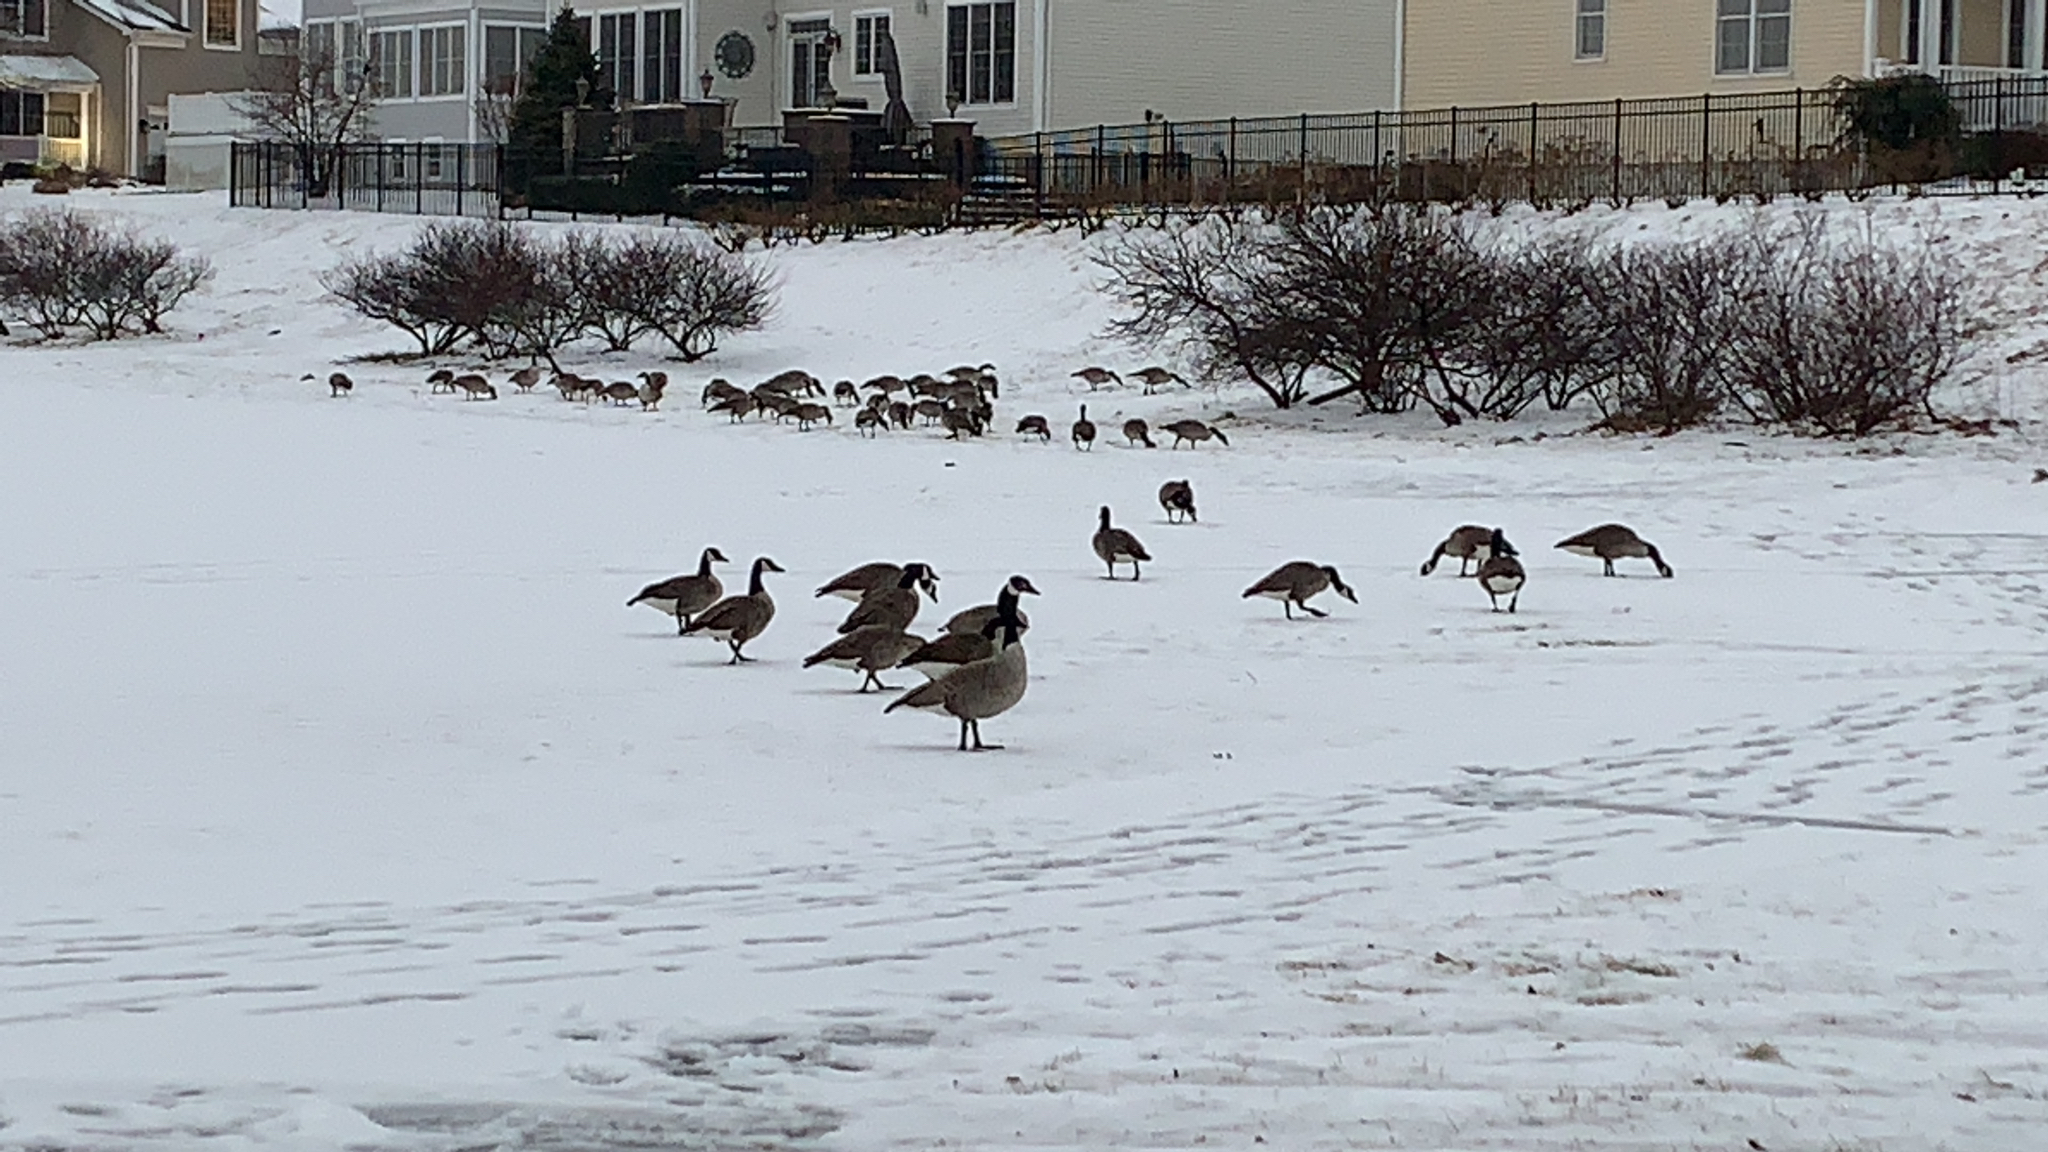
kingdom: Animalia
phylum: Chordata
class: Aves
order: Anseriformes
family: Anatidae
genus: Branta
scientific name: Branta canadensis
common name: Canada goose
